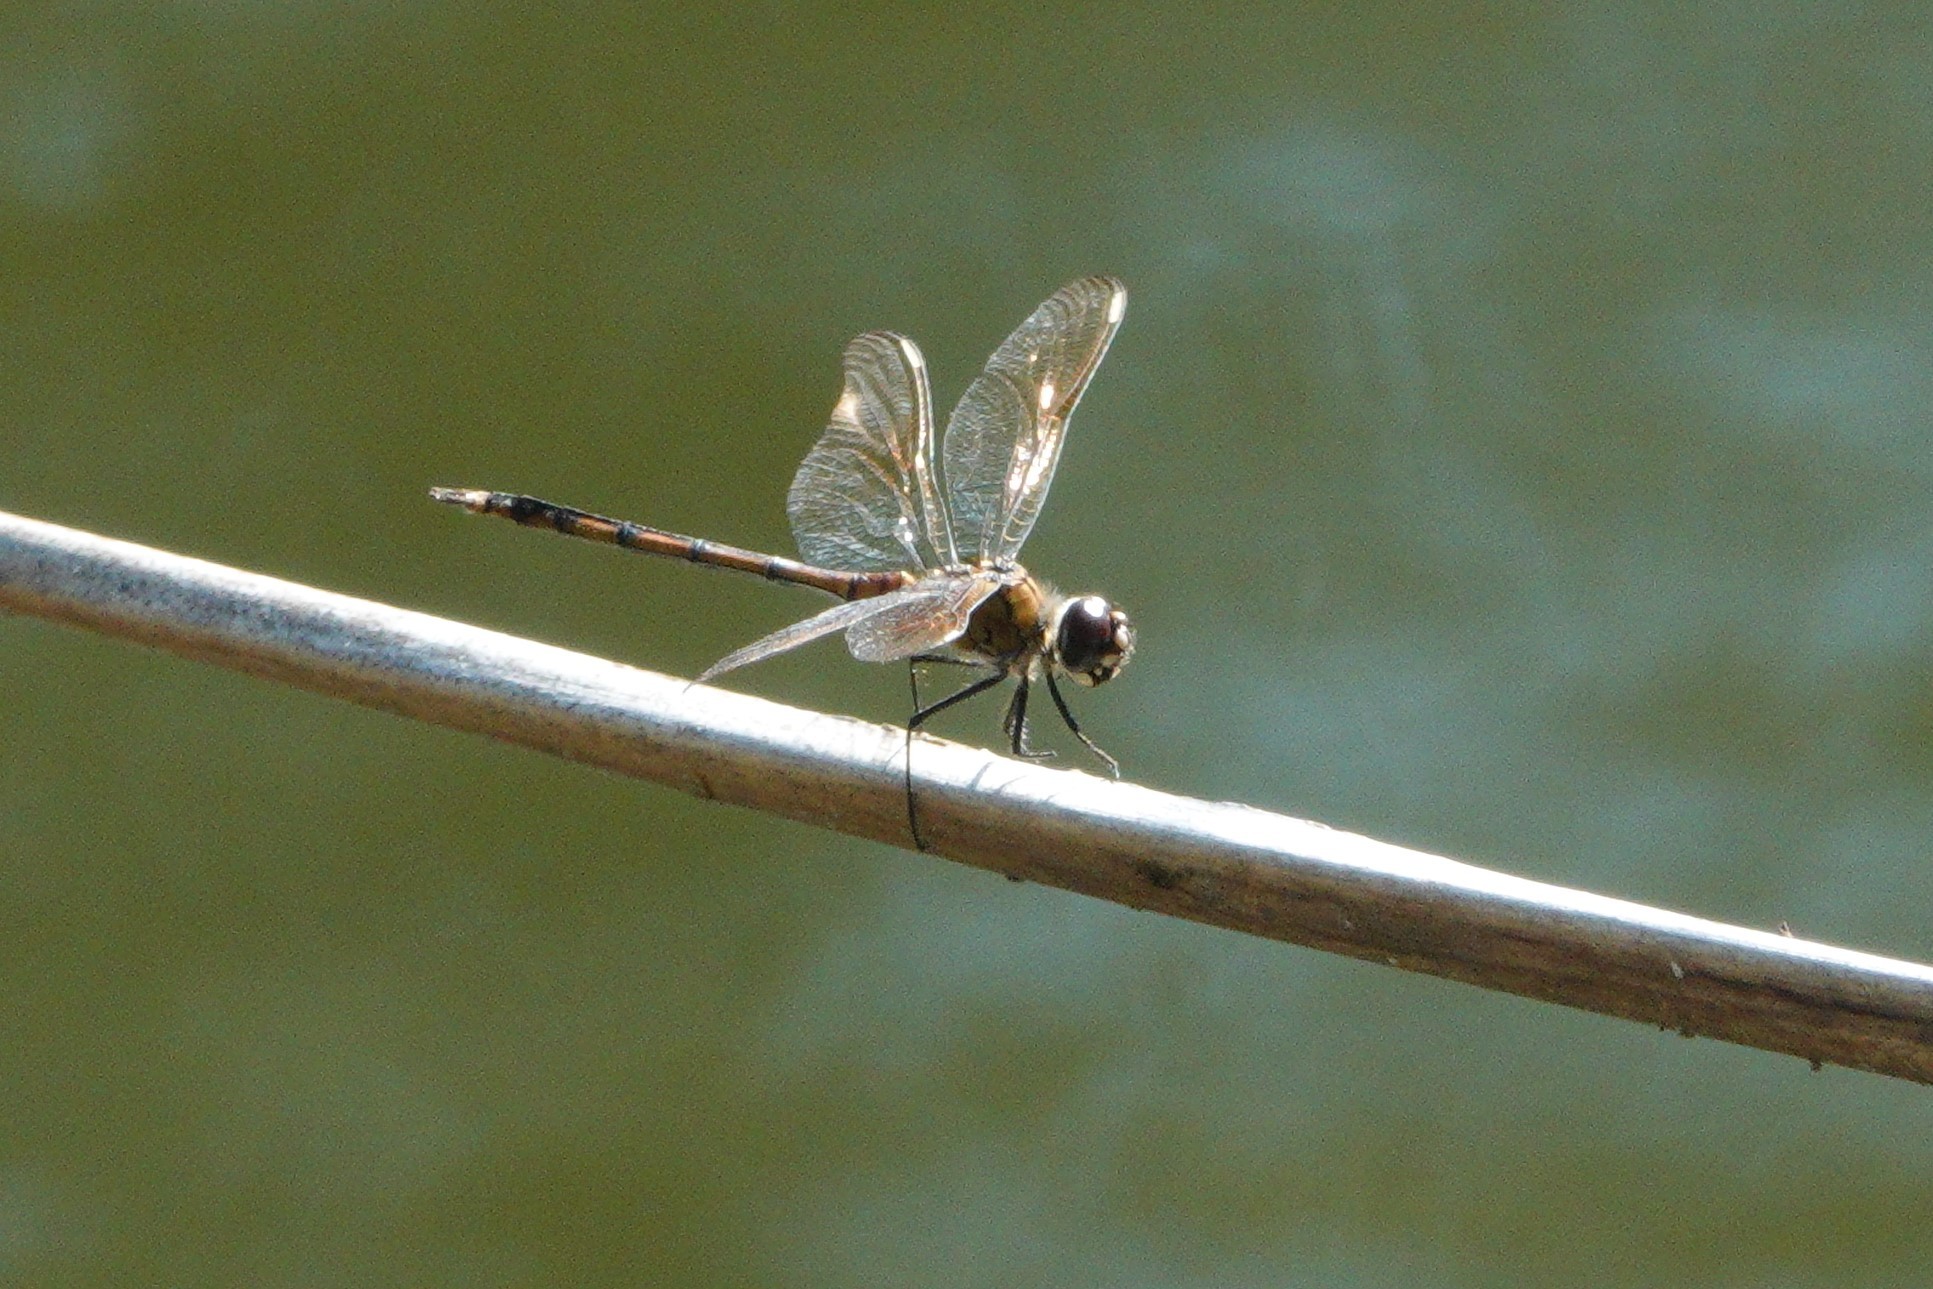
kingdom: Animalia
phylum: Arthropoda
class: Insecta
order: Odonata
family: Libellulidae
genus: Brachymesia
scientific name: Brachymesia gravida
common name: Four-spotted pennant
